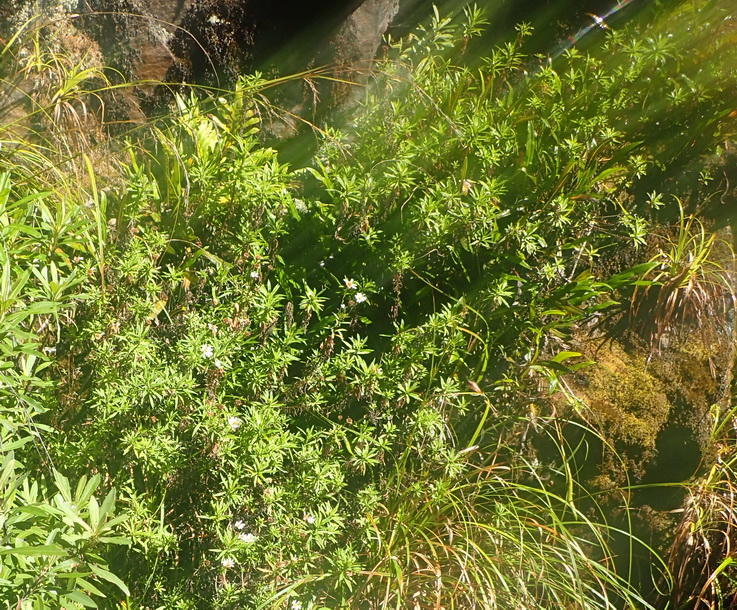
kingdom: Plantae
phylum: Tracheophyta
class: Magnoliopsida
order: Asterales
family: Asteraceae
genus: Osmitopsis
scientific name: Osmitopsis osmitoides
